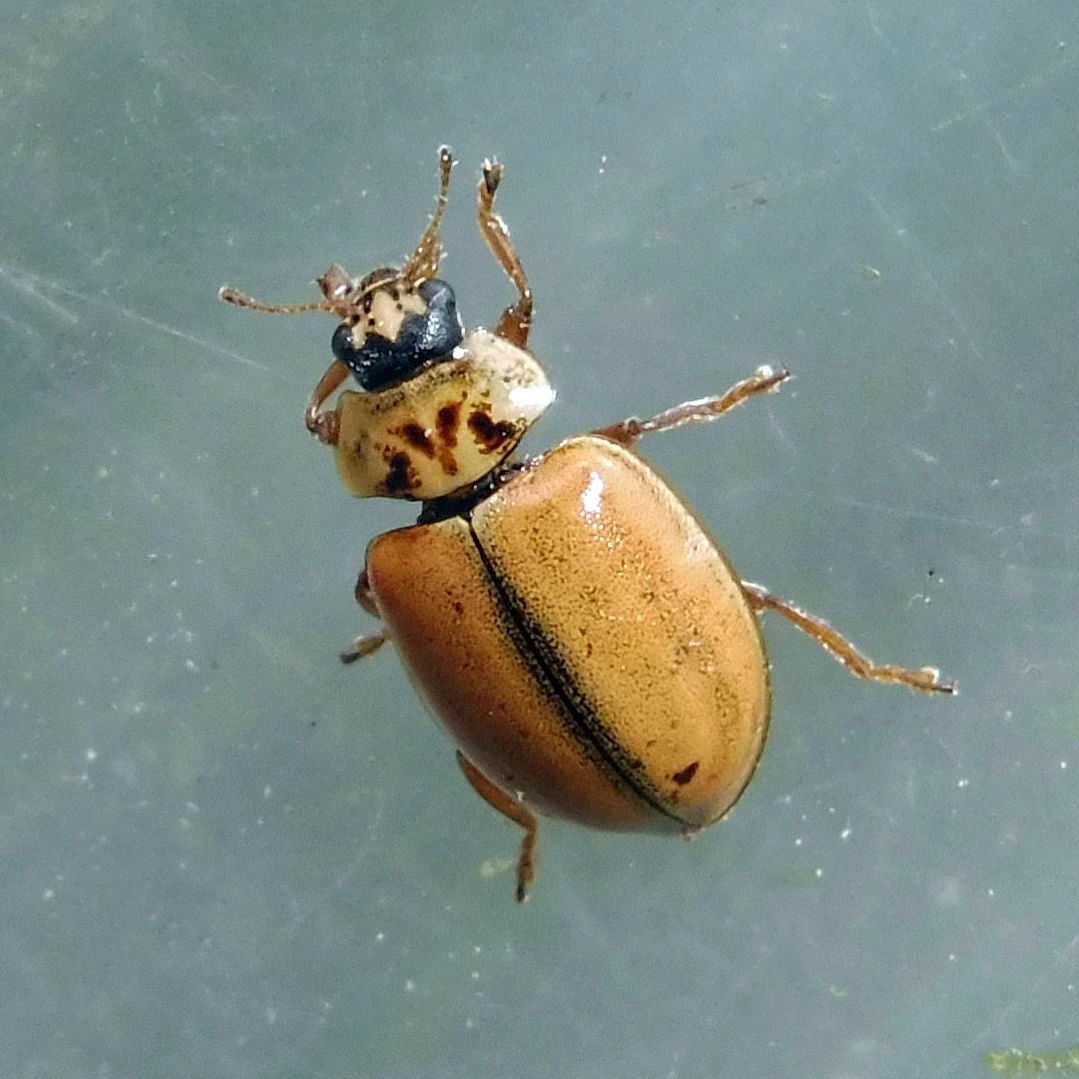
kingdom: Animalia
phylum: Arthropoda
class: Insecta
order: Coleoptera
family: Coccinellidae
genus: Aphidecta
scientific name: Aphidecta obliterata
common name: Larch ladybird
